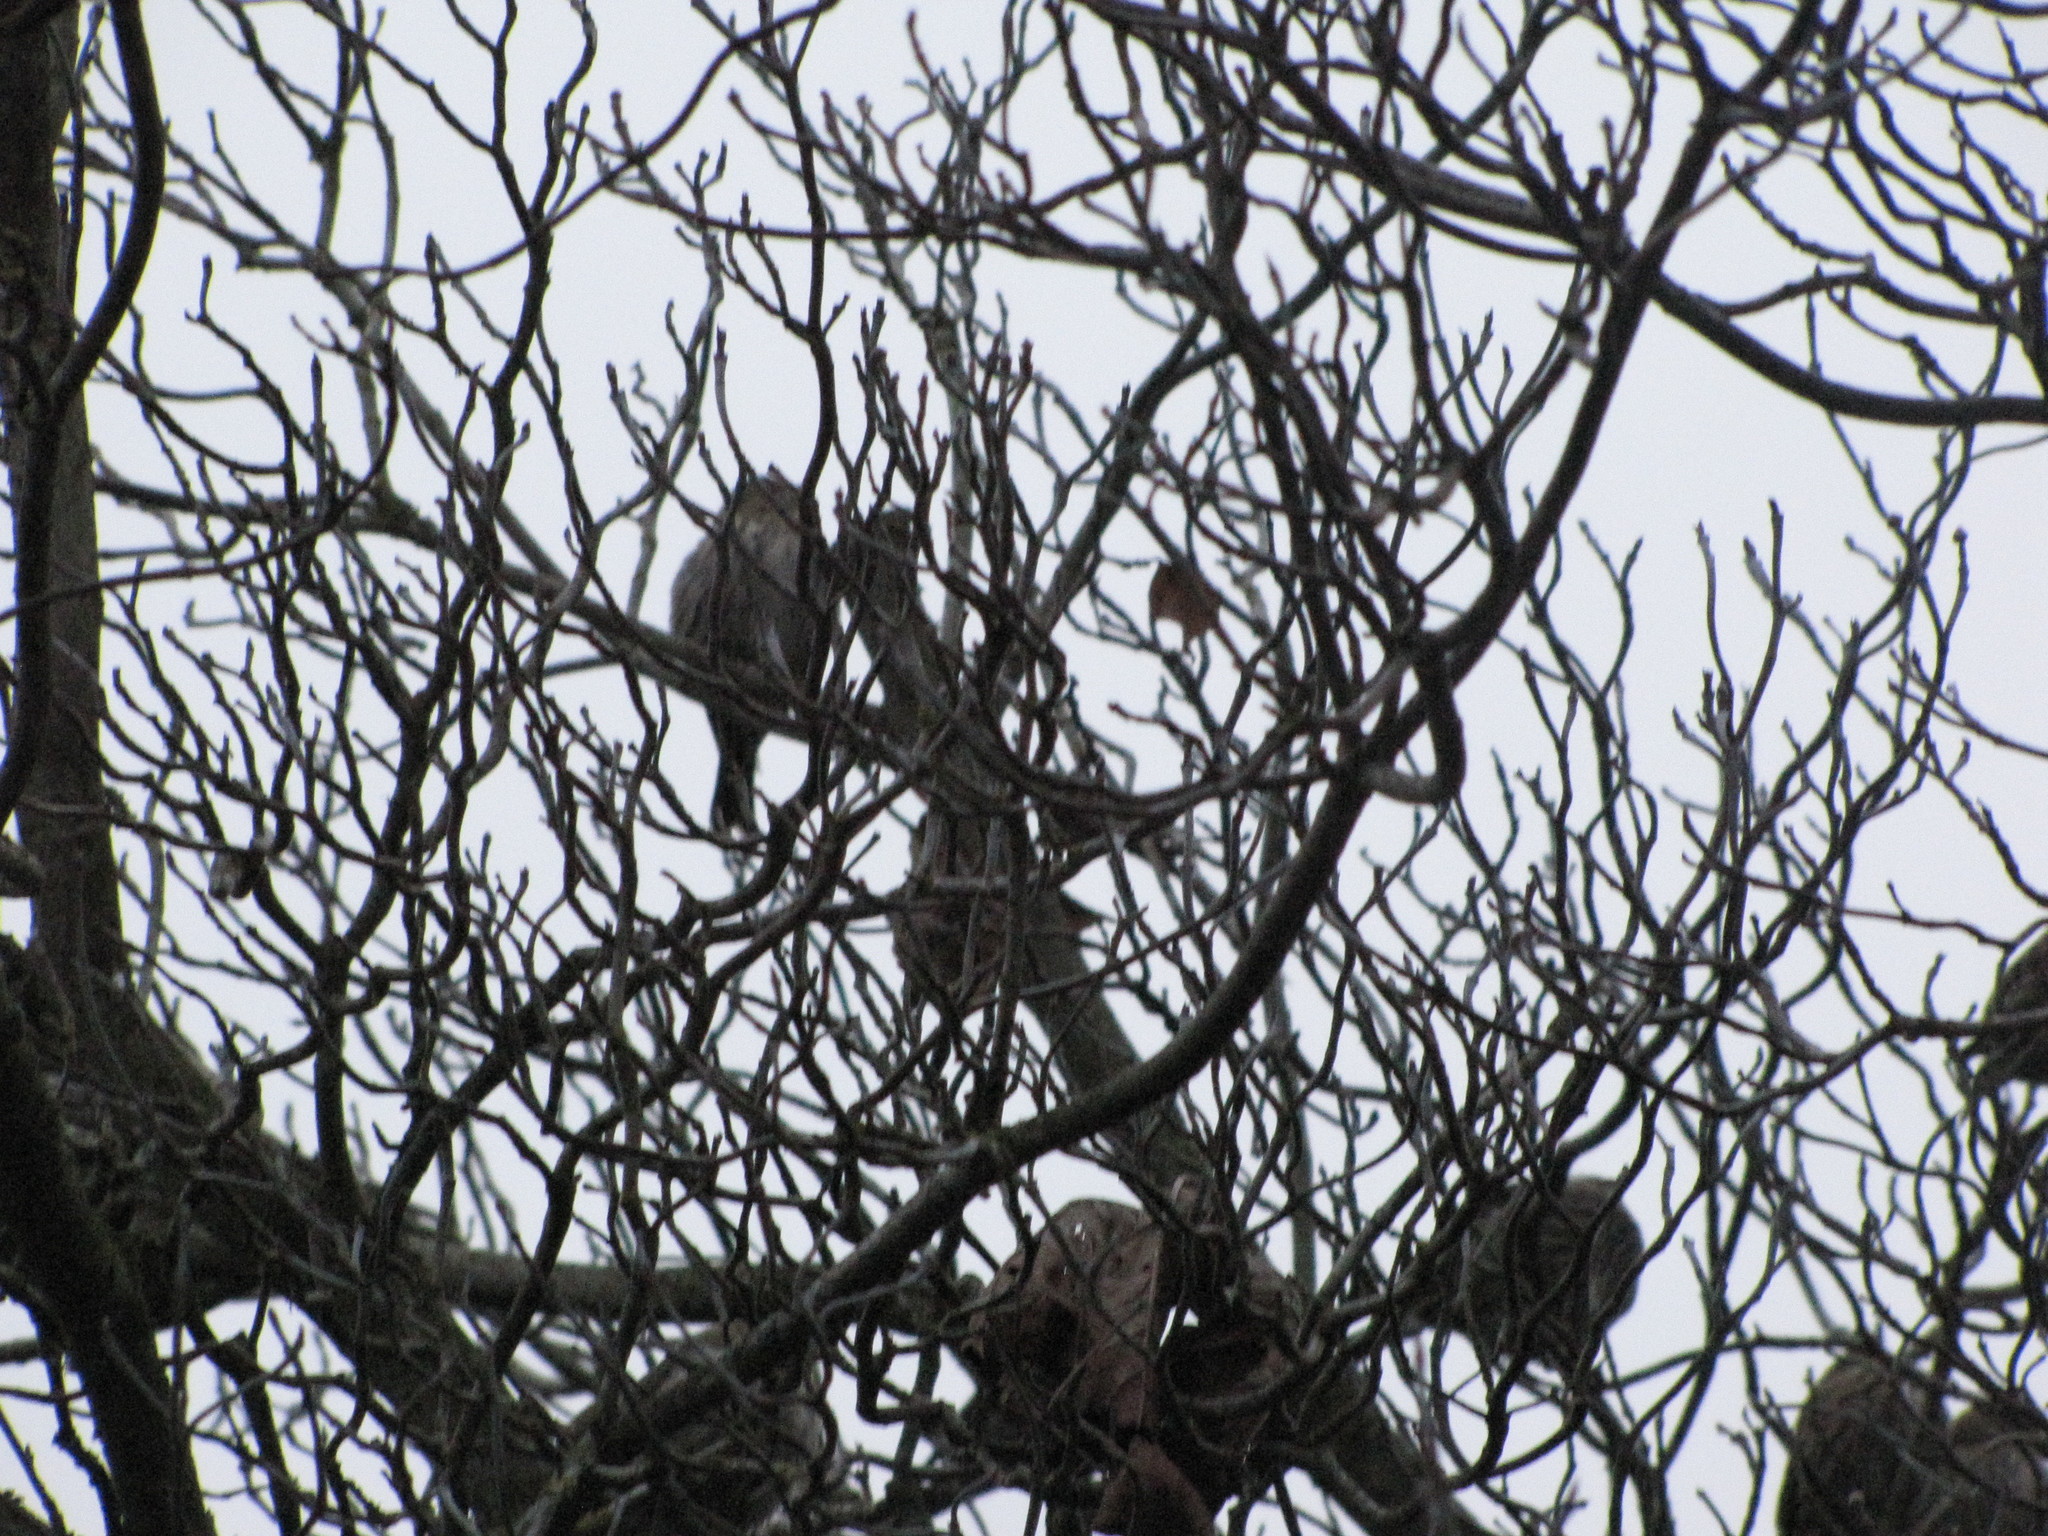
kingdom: Animalia
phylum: Chordata
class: Aves
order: Passeriformes
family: Fringillidae
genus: Spinus
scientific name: Spinus pinus
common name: Pine siskin
